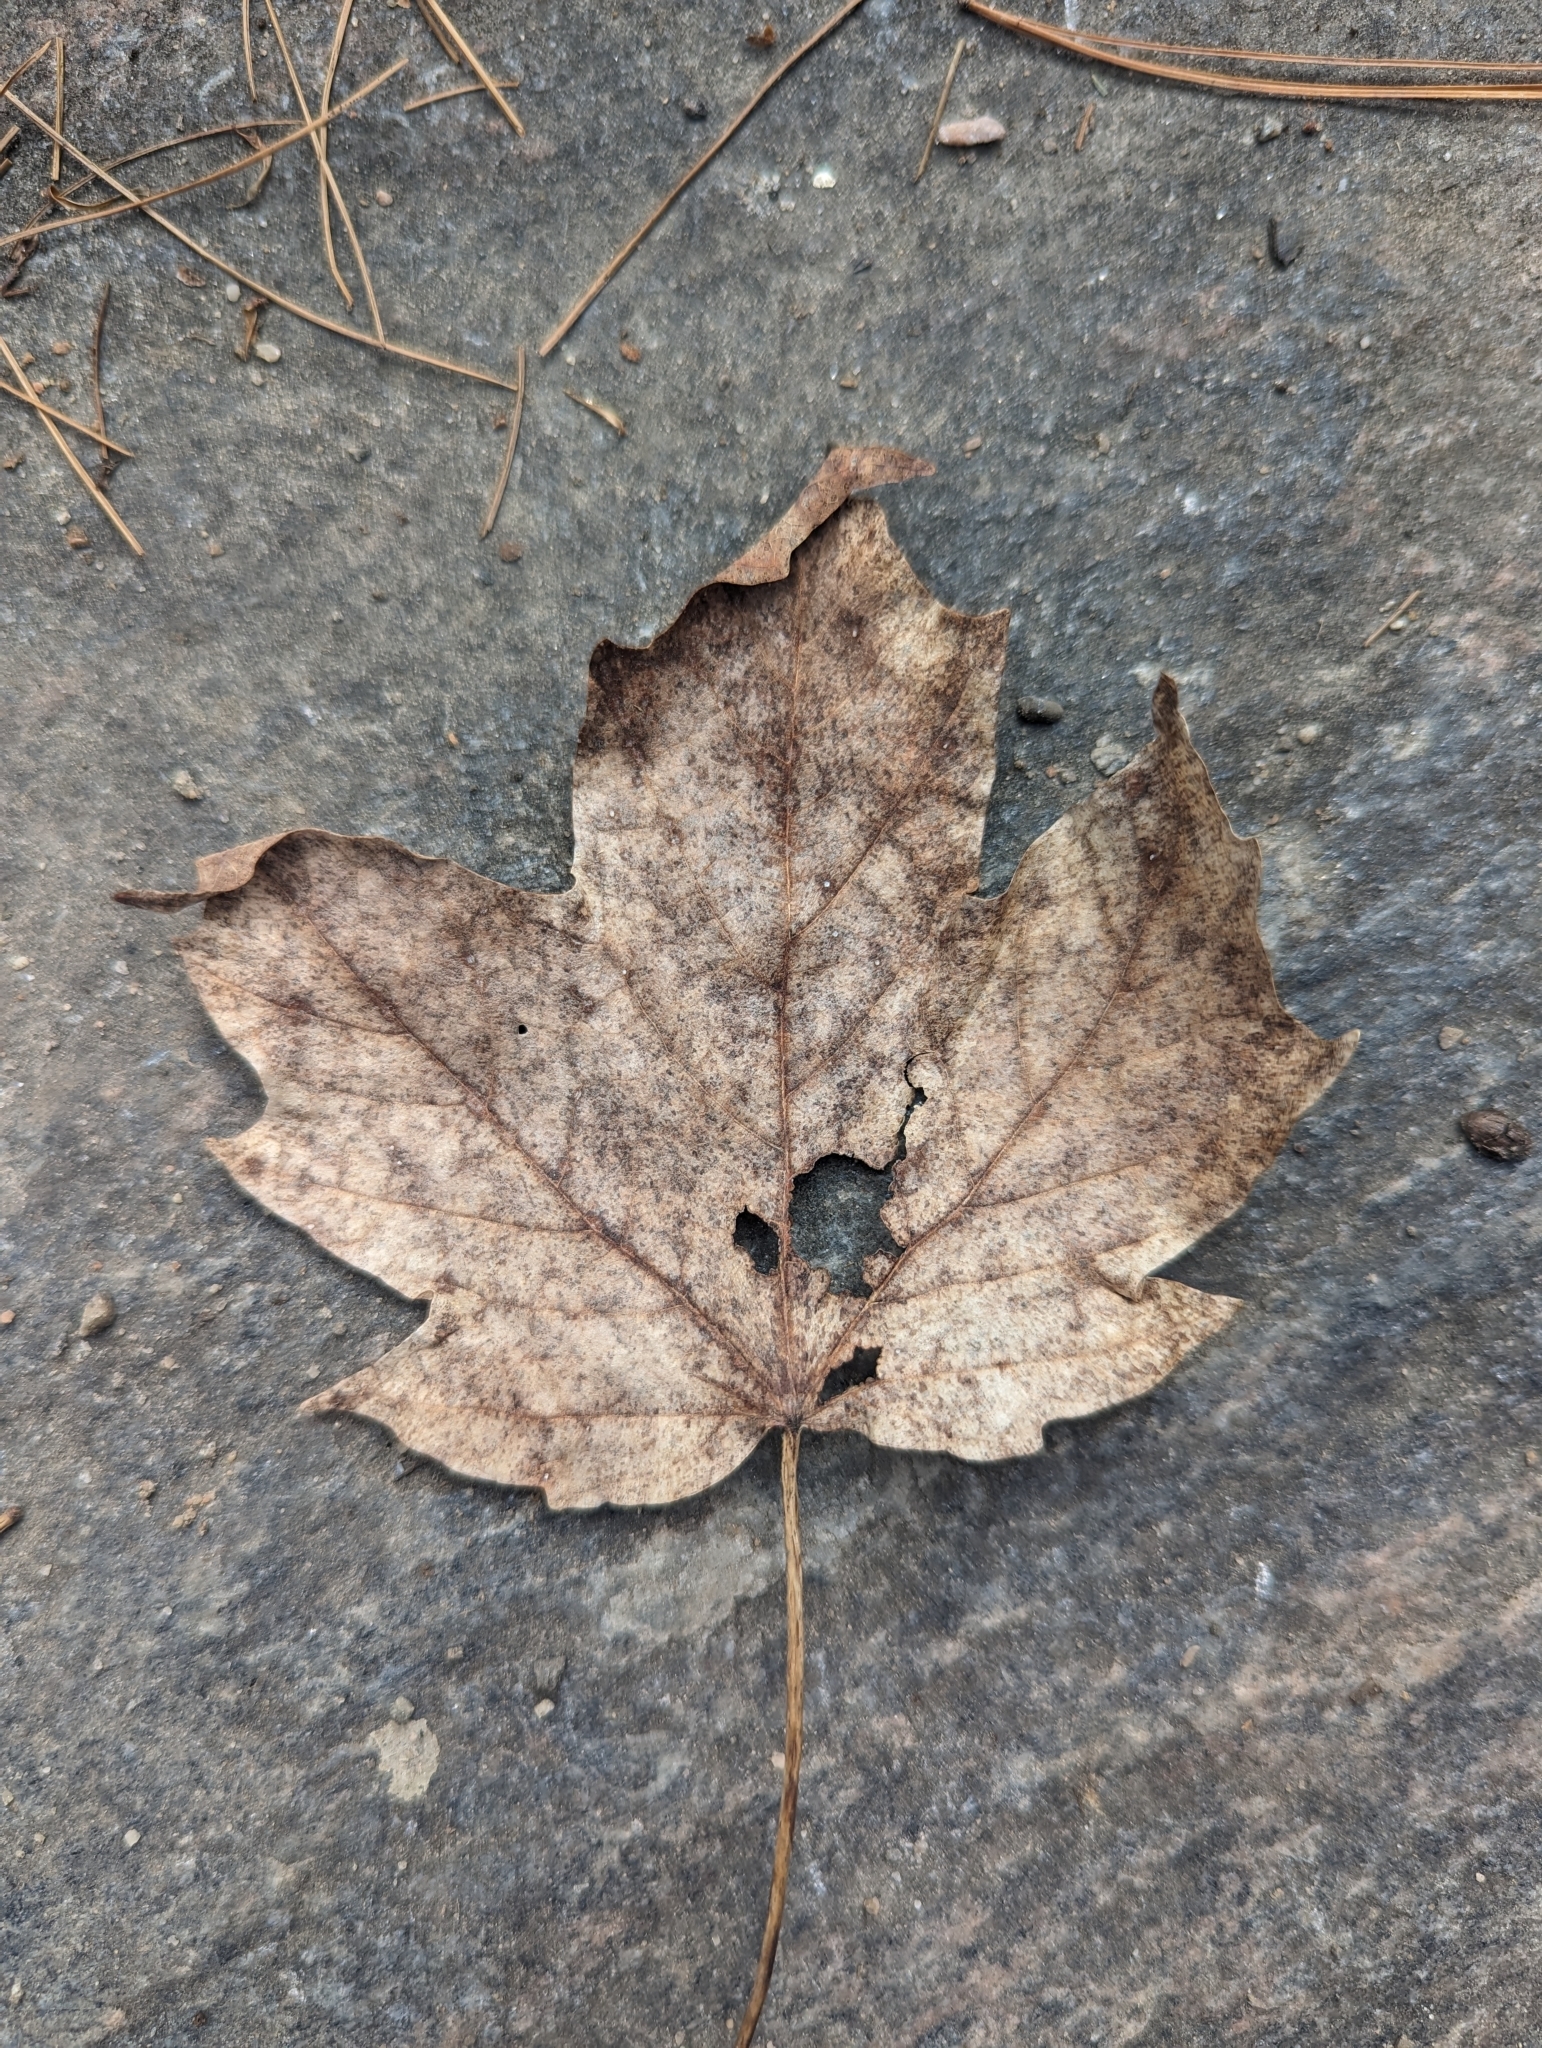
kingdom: Plantae
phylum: Tracheophyta
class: Magnoliopsida
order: Sapindales
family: Sapindaceae
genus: Acer
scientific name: Acer saccharum
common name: Sugar maple
